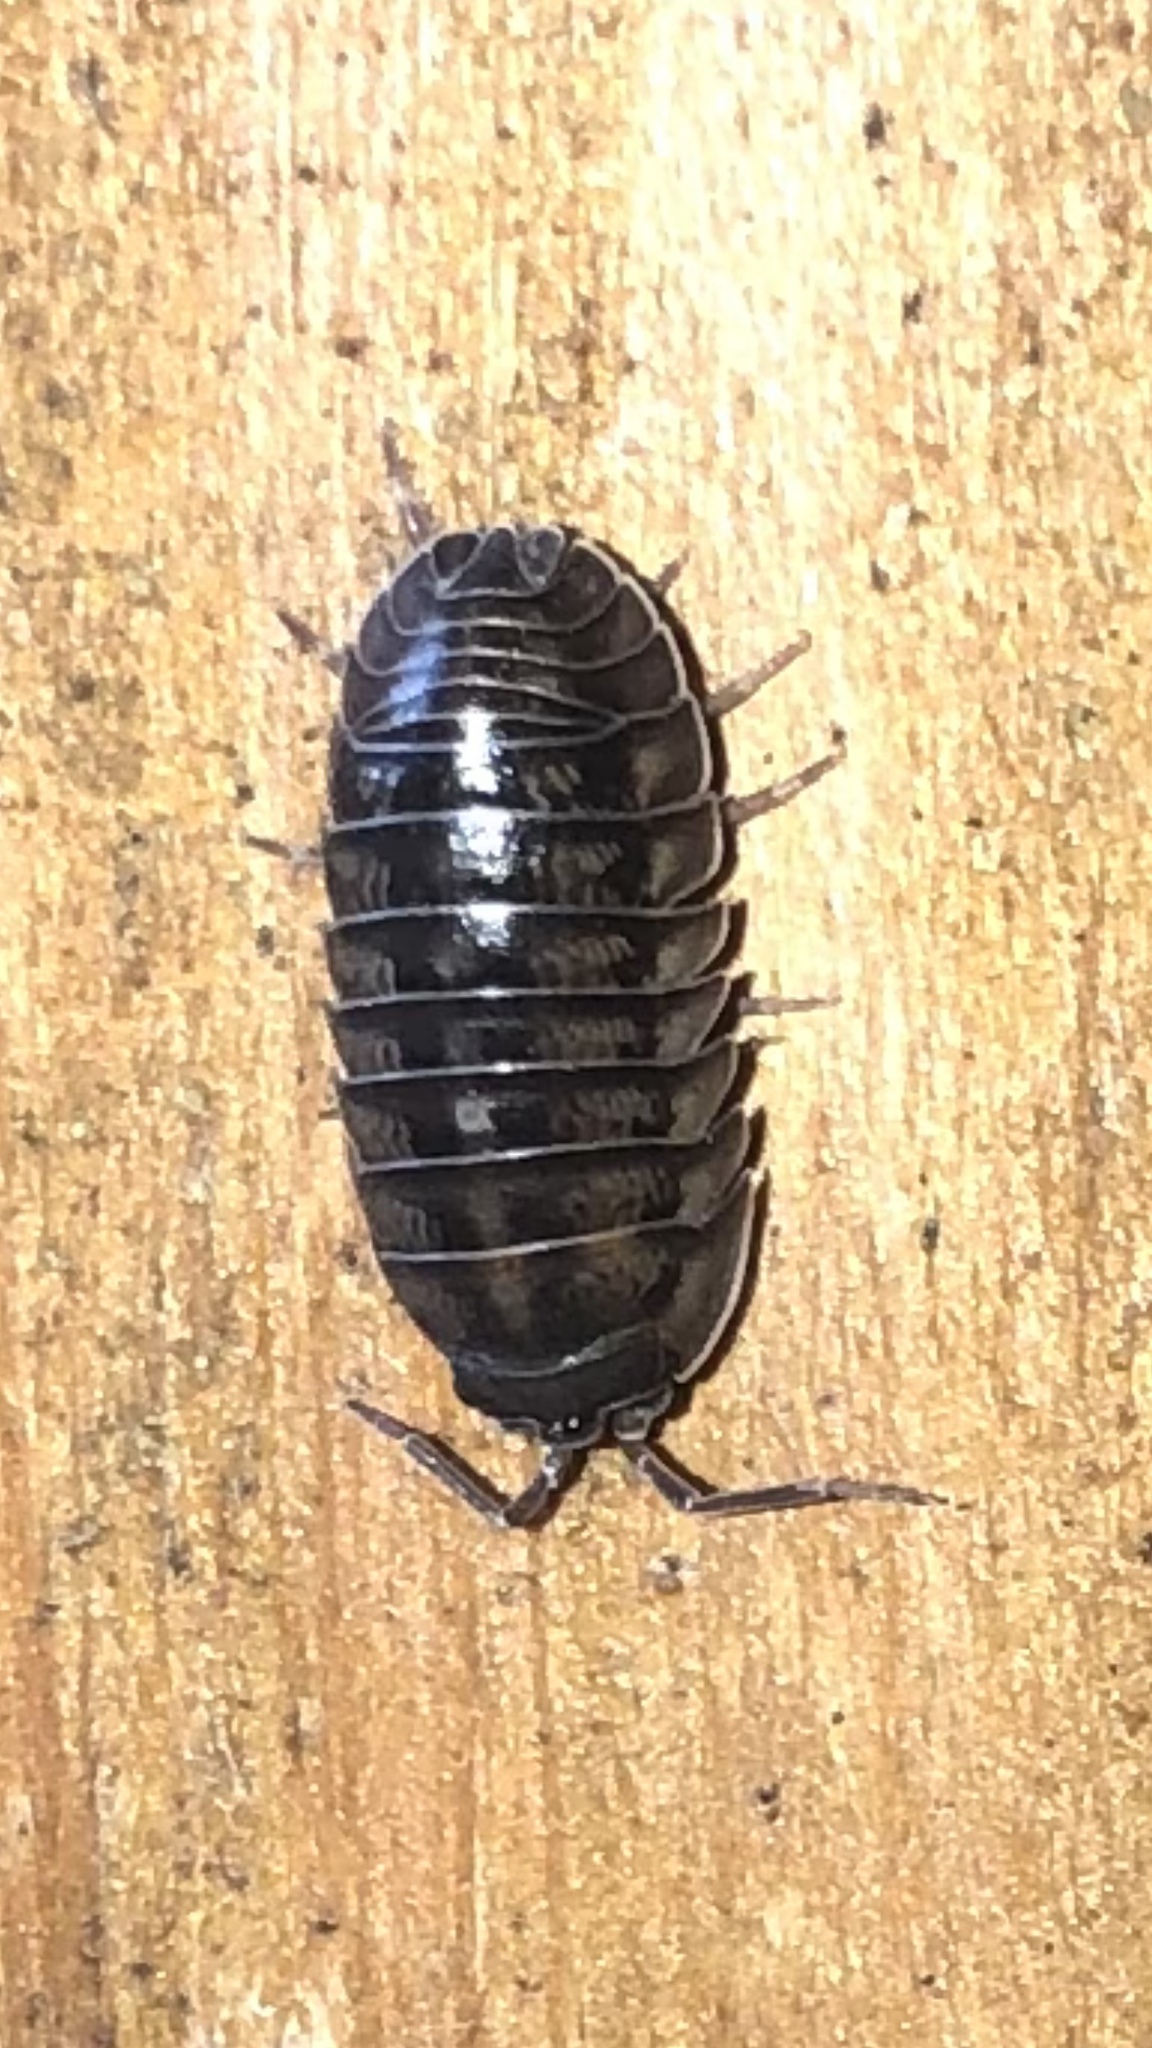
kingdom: Animalia
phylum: Arthropoda
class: Malacostraca
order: Isopoda
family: Armadillidiidae
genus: Armadillidium
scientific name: Armadillidium nasatum
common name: Isopod
